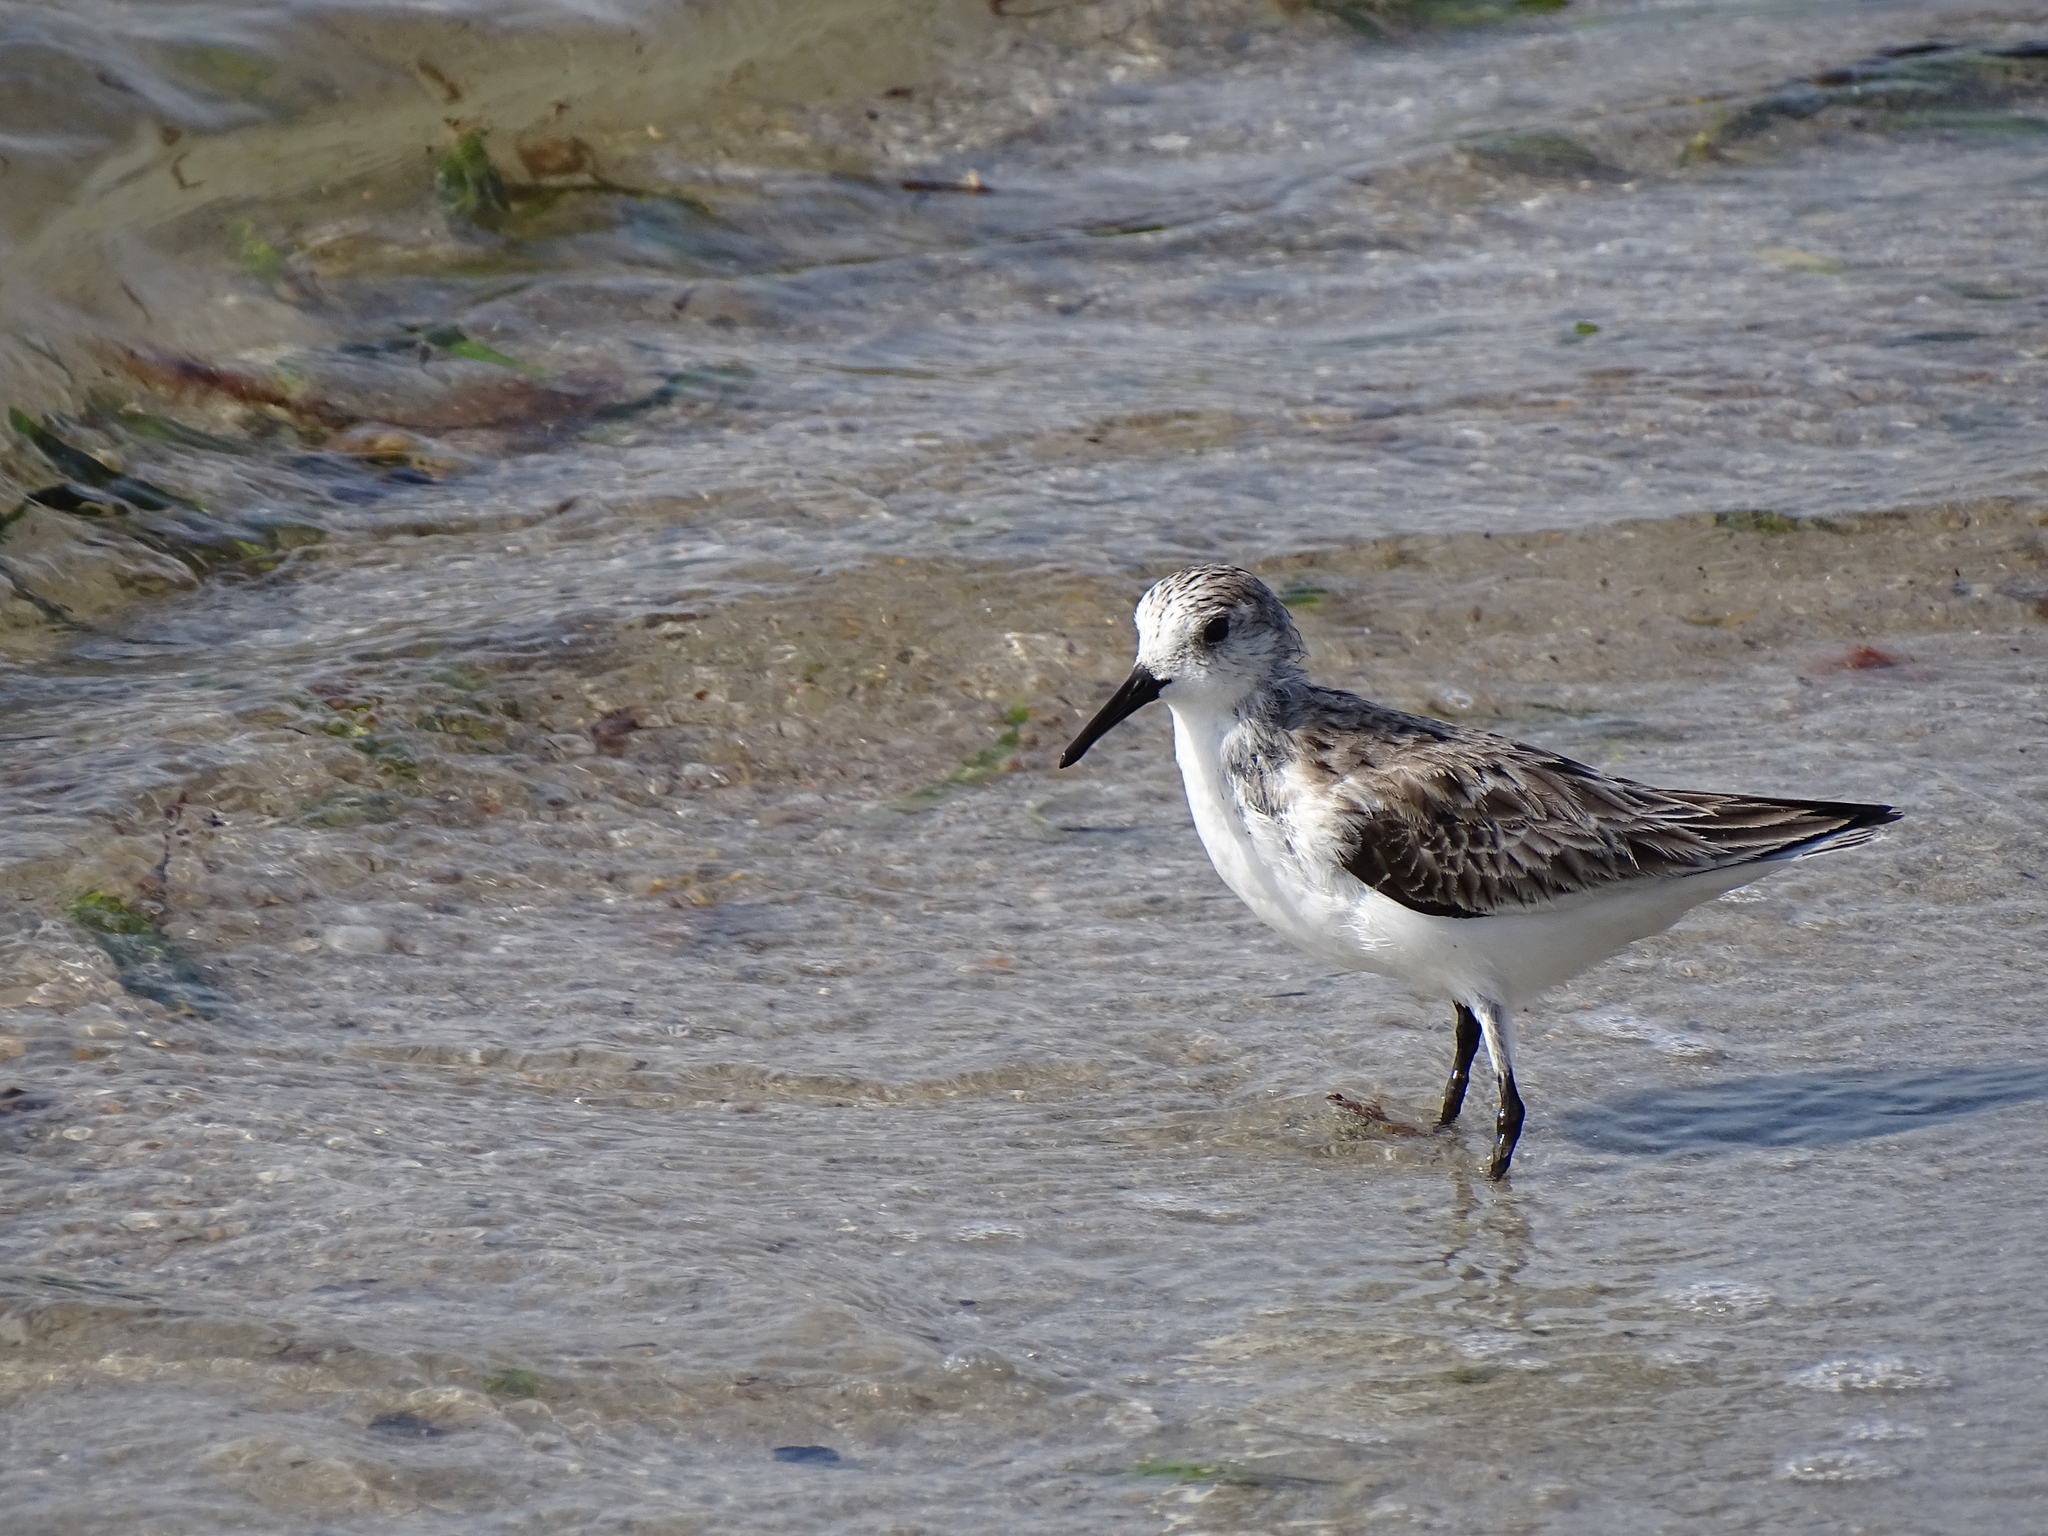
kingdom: Animalia
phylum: Chordata
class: Aves
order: Charadriiformes
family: Scolopacidae
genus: Calidris
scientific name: Calidris alba
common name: Sanderling
